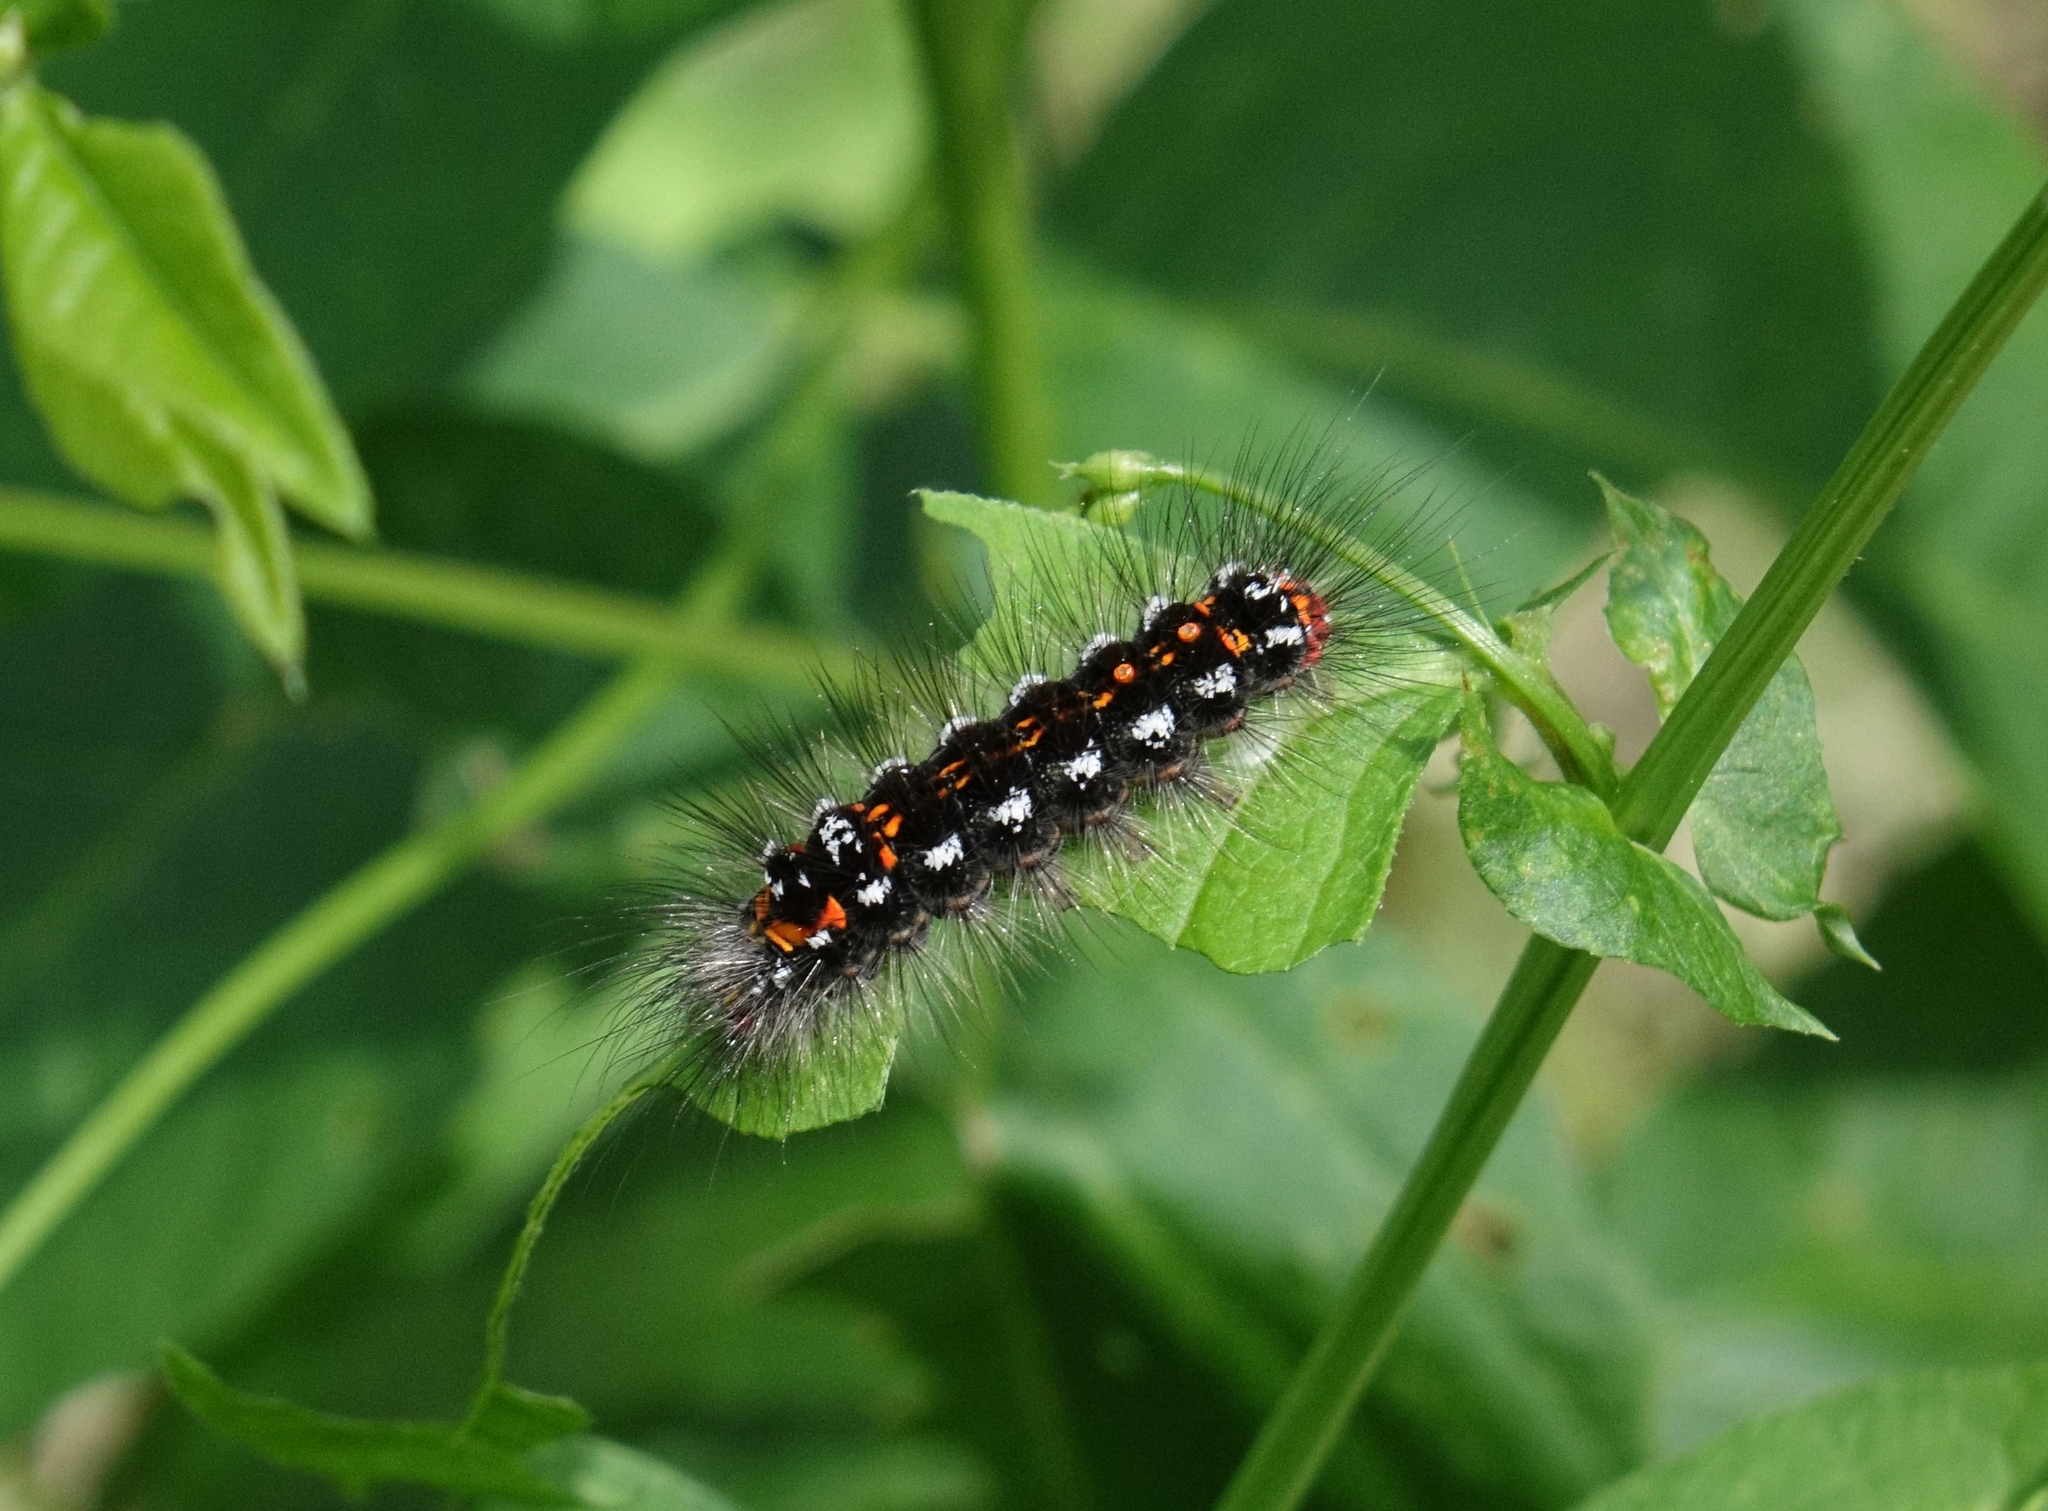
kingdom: Animalia
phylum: Arthropoda
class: Insecta
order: Lepidoptera
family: Erebidae
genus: Sphrageidus
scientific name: Sphrageidus similis
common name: Yellow-tail
